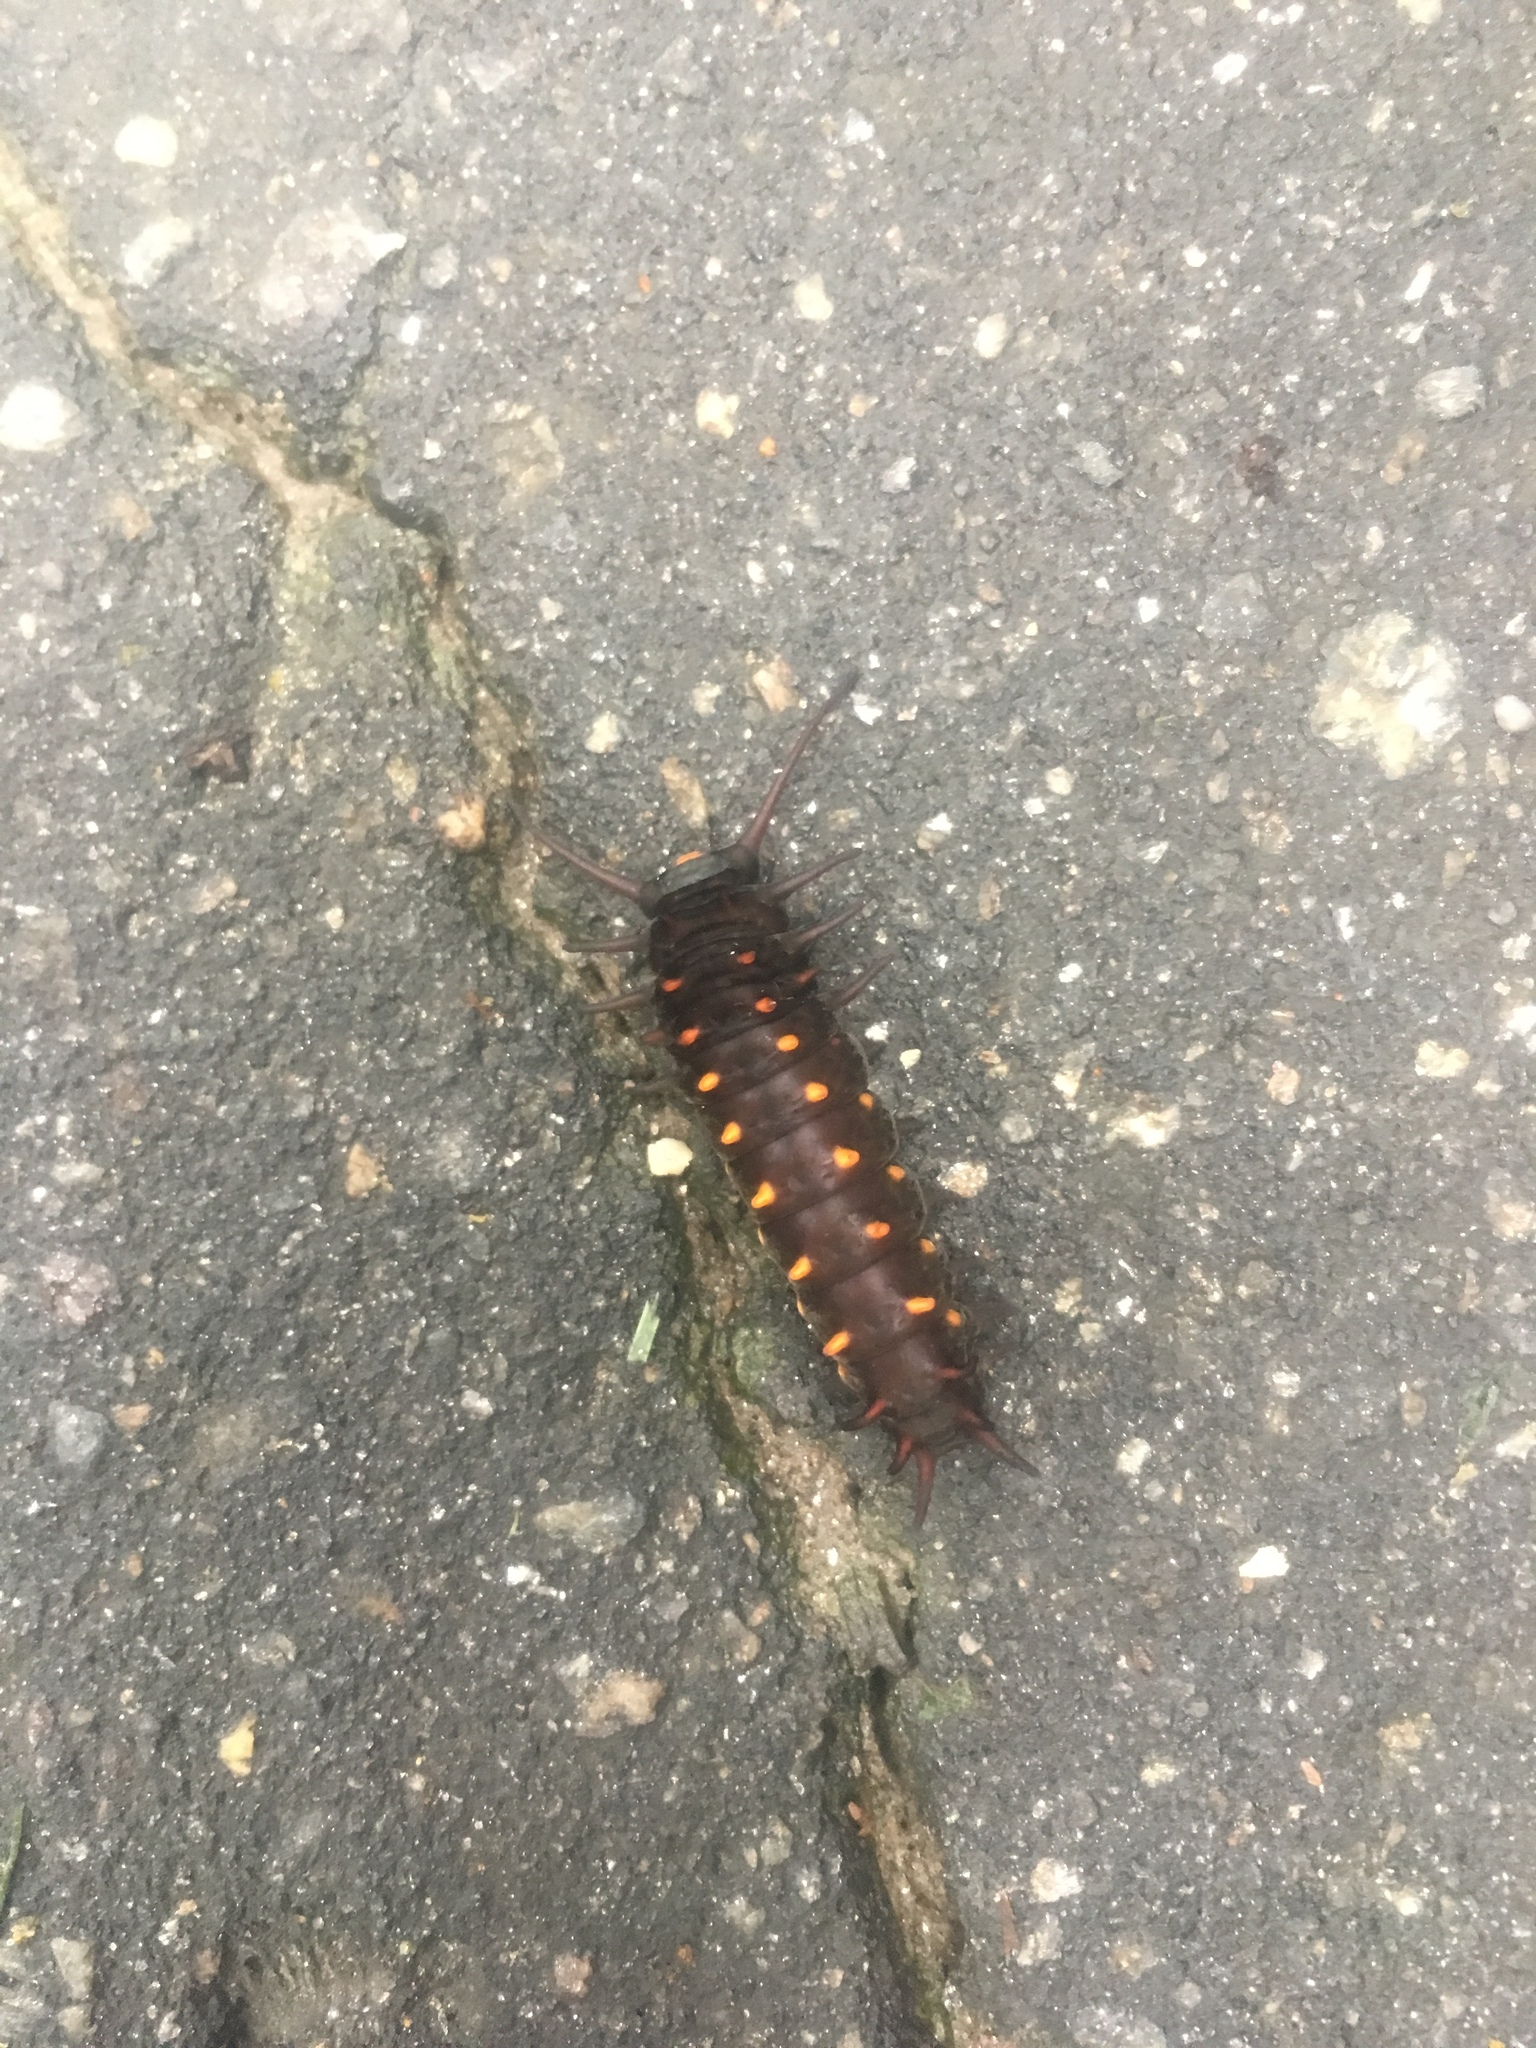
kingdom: Animalia
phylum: Arthropoda
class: Insecta
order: Lepidoptera
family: Papilionidae
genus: Battus
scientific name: Battus philenor
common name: Pipevine swallowtail
